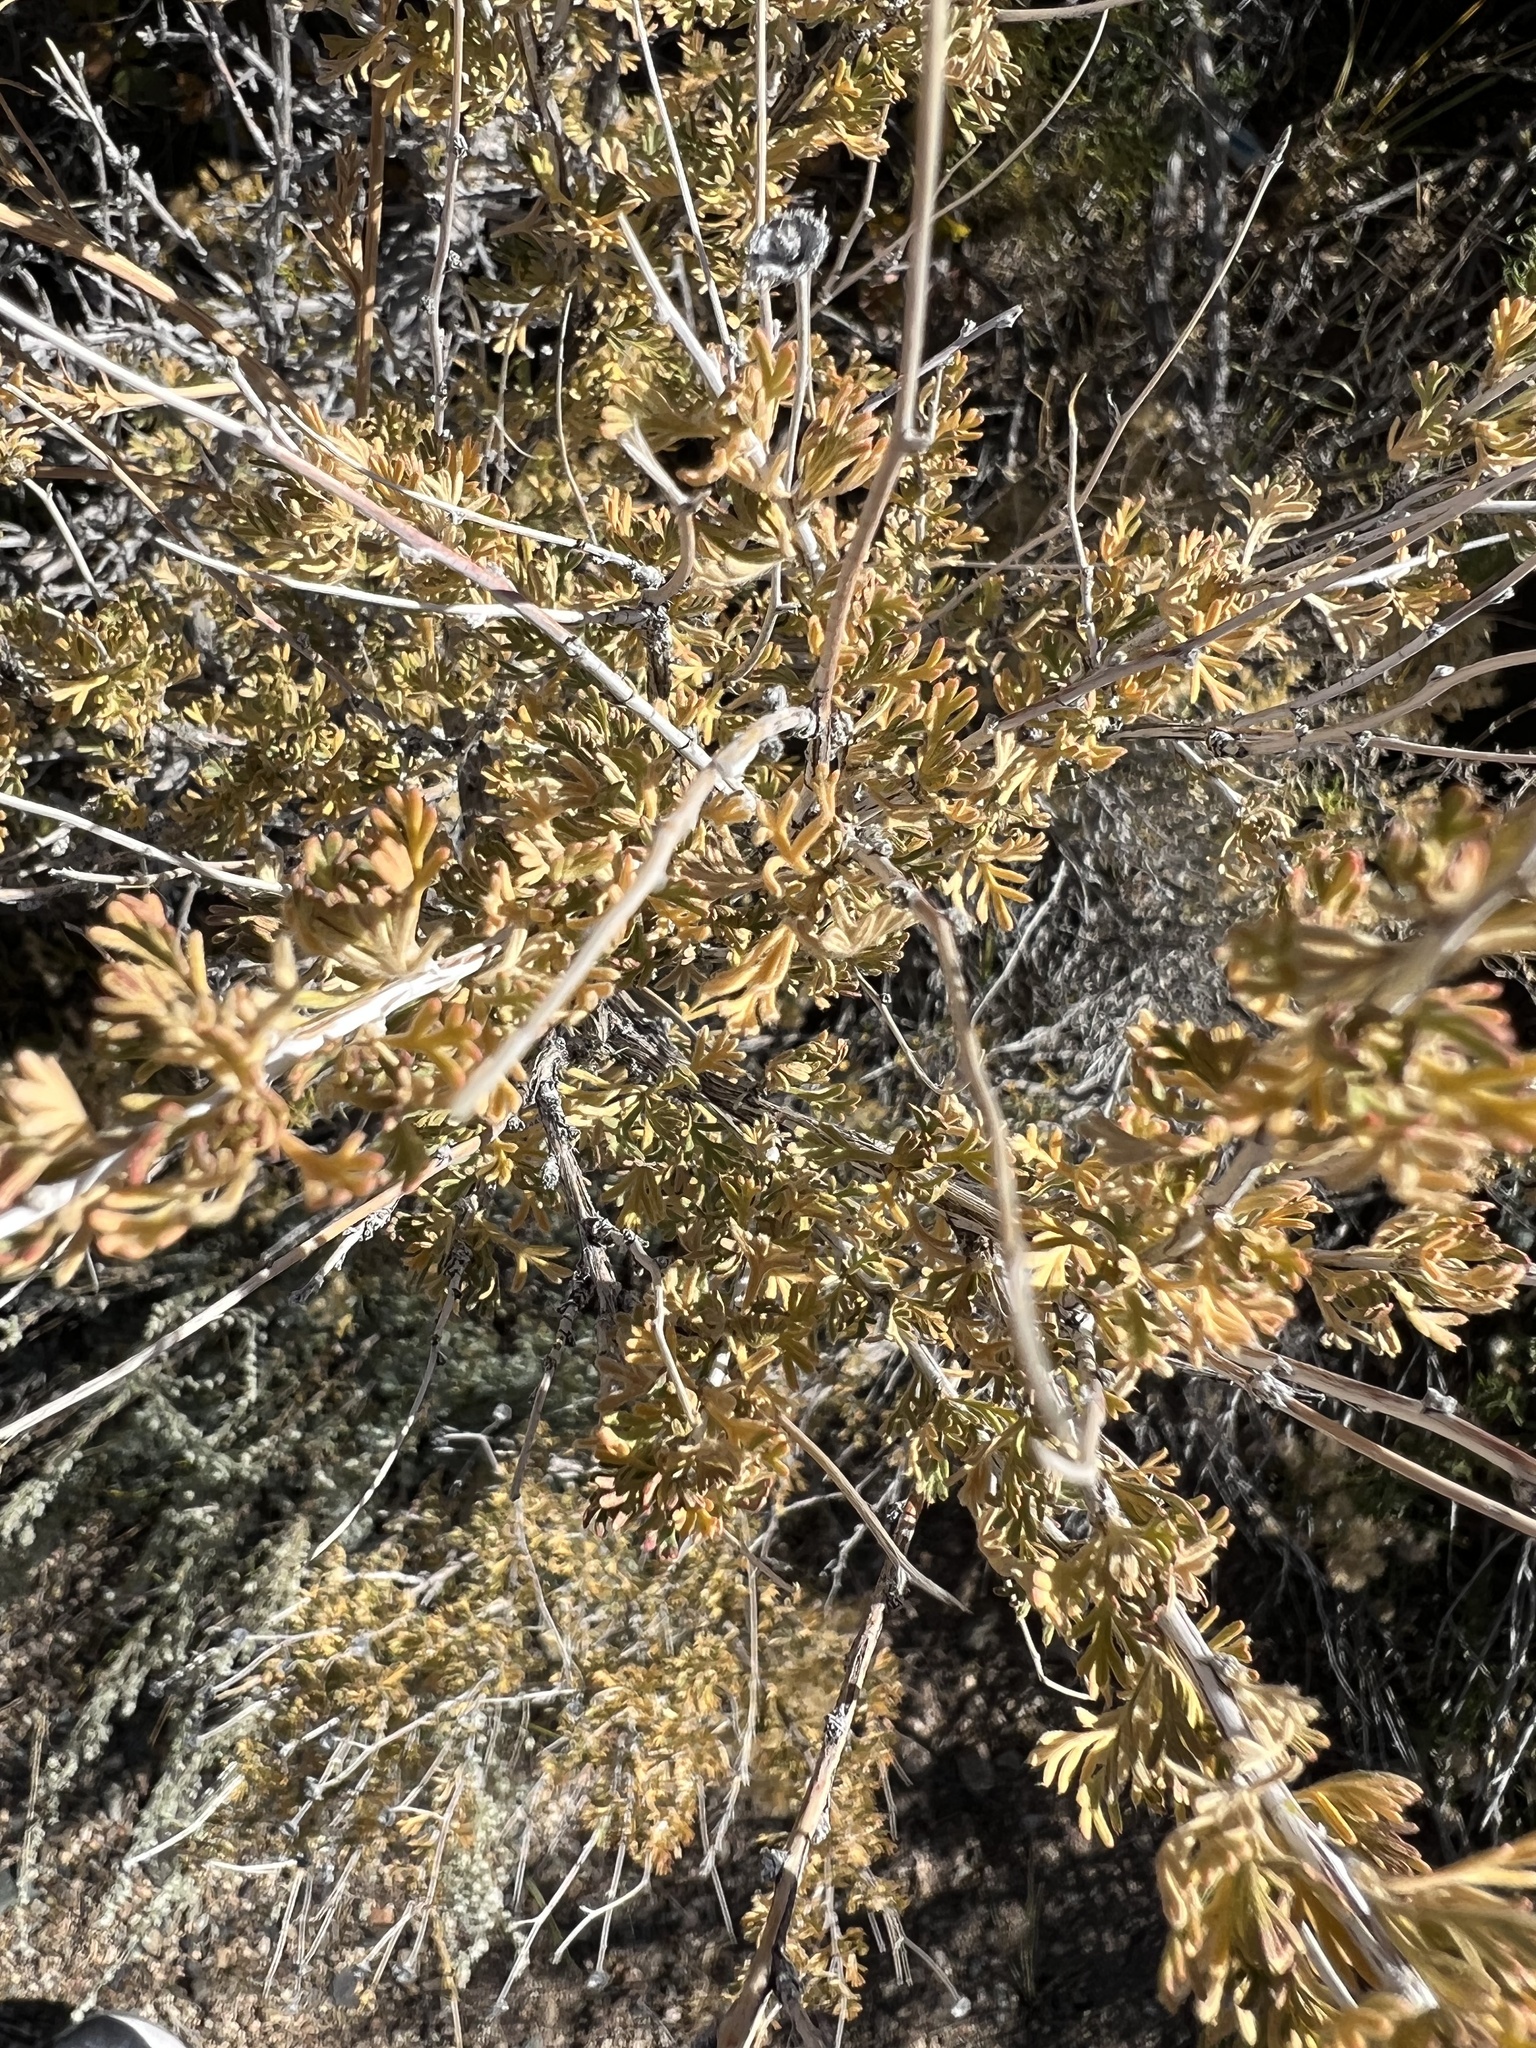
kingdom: Plantae
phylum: Tracheophyta
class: Magnoliopsida
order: Rosales
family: Rosaceae
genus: Fallugia
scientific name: Fallugia paradoxa
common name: Apache-plume
